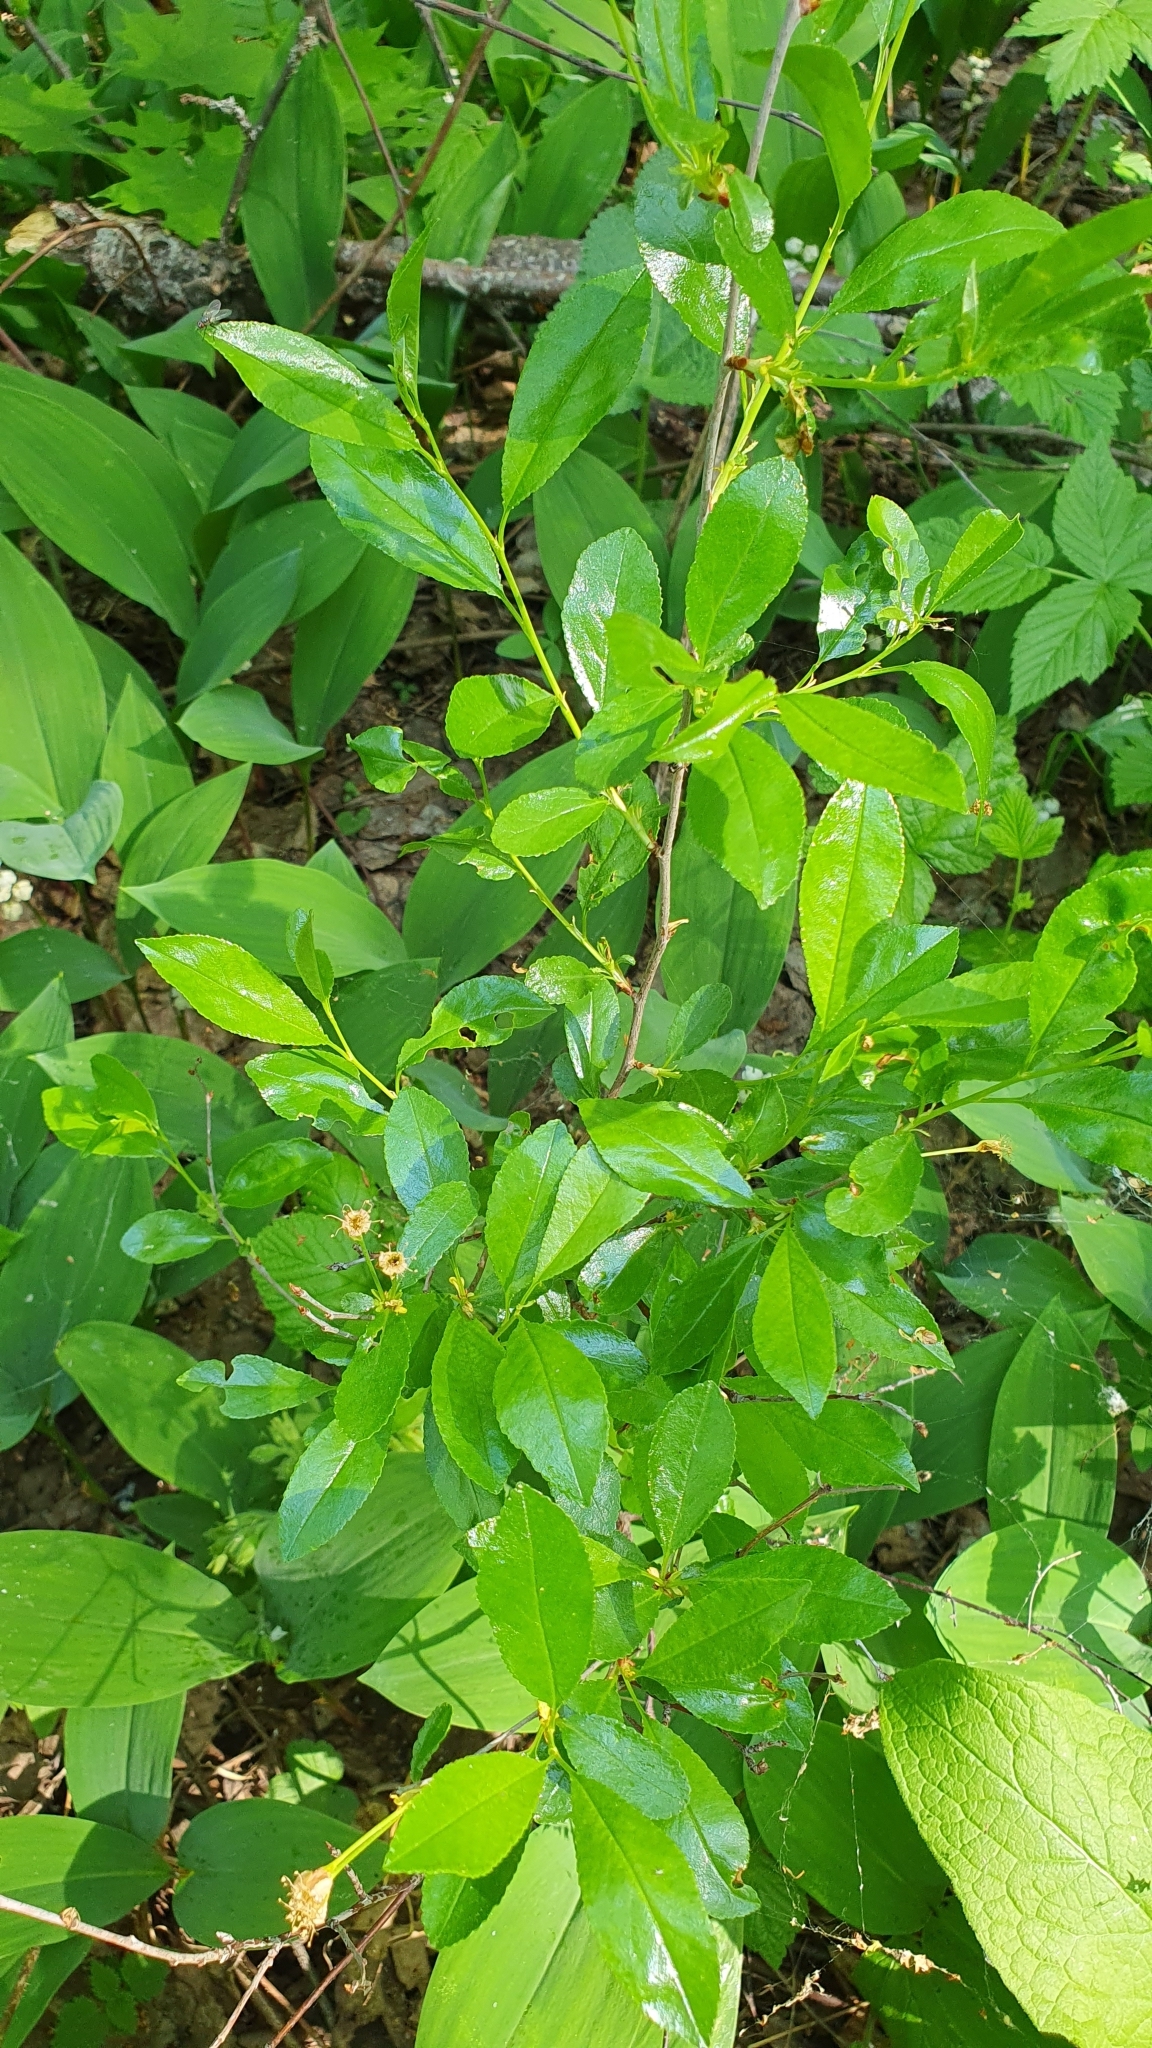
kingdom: Plantae
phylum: Tracheophyta
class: Magnoliopsida
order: Rosales
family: Rosaceae
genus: Prunus
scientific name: Prunus fruticosa
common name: European dwarf cherry
